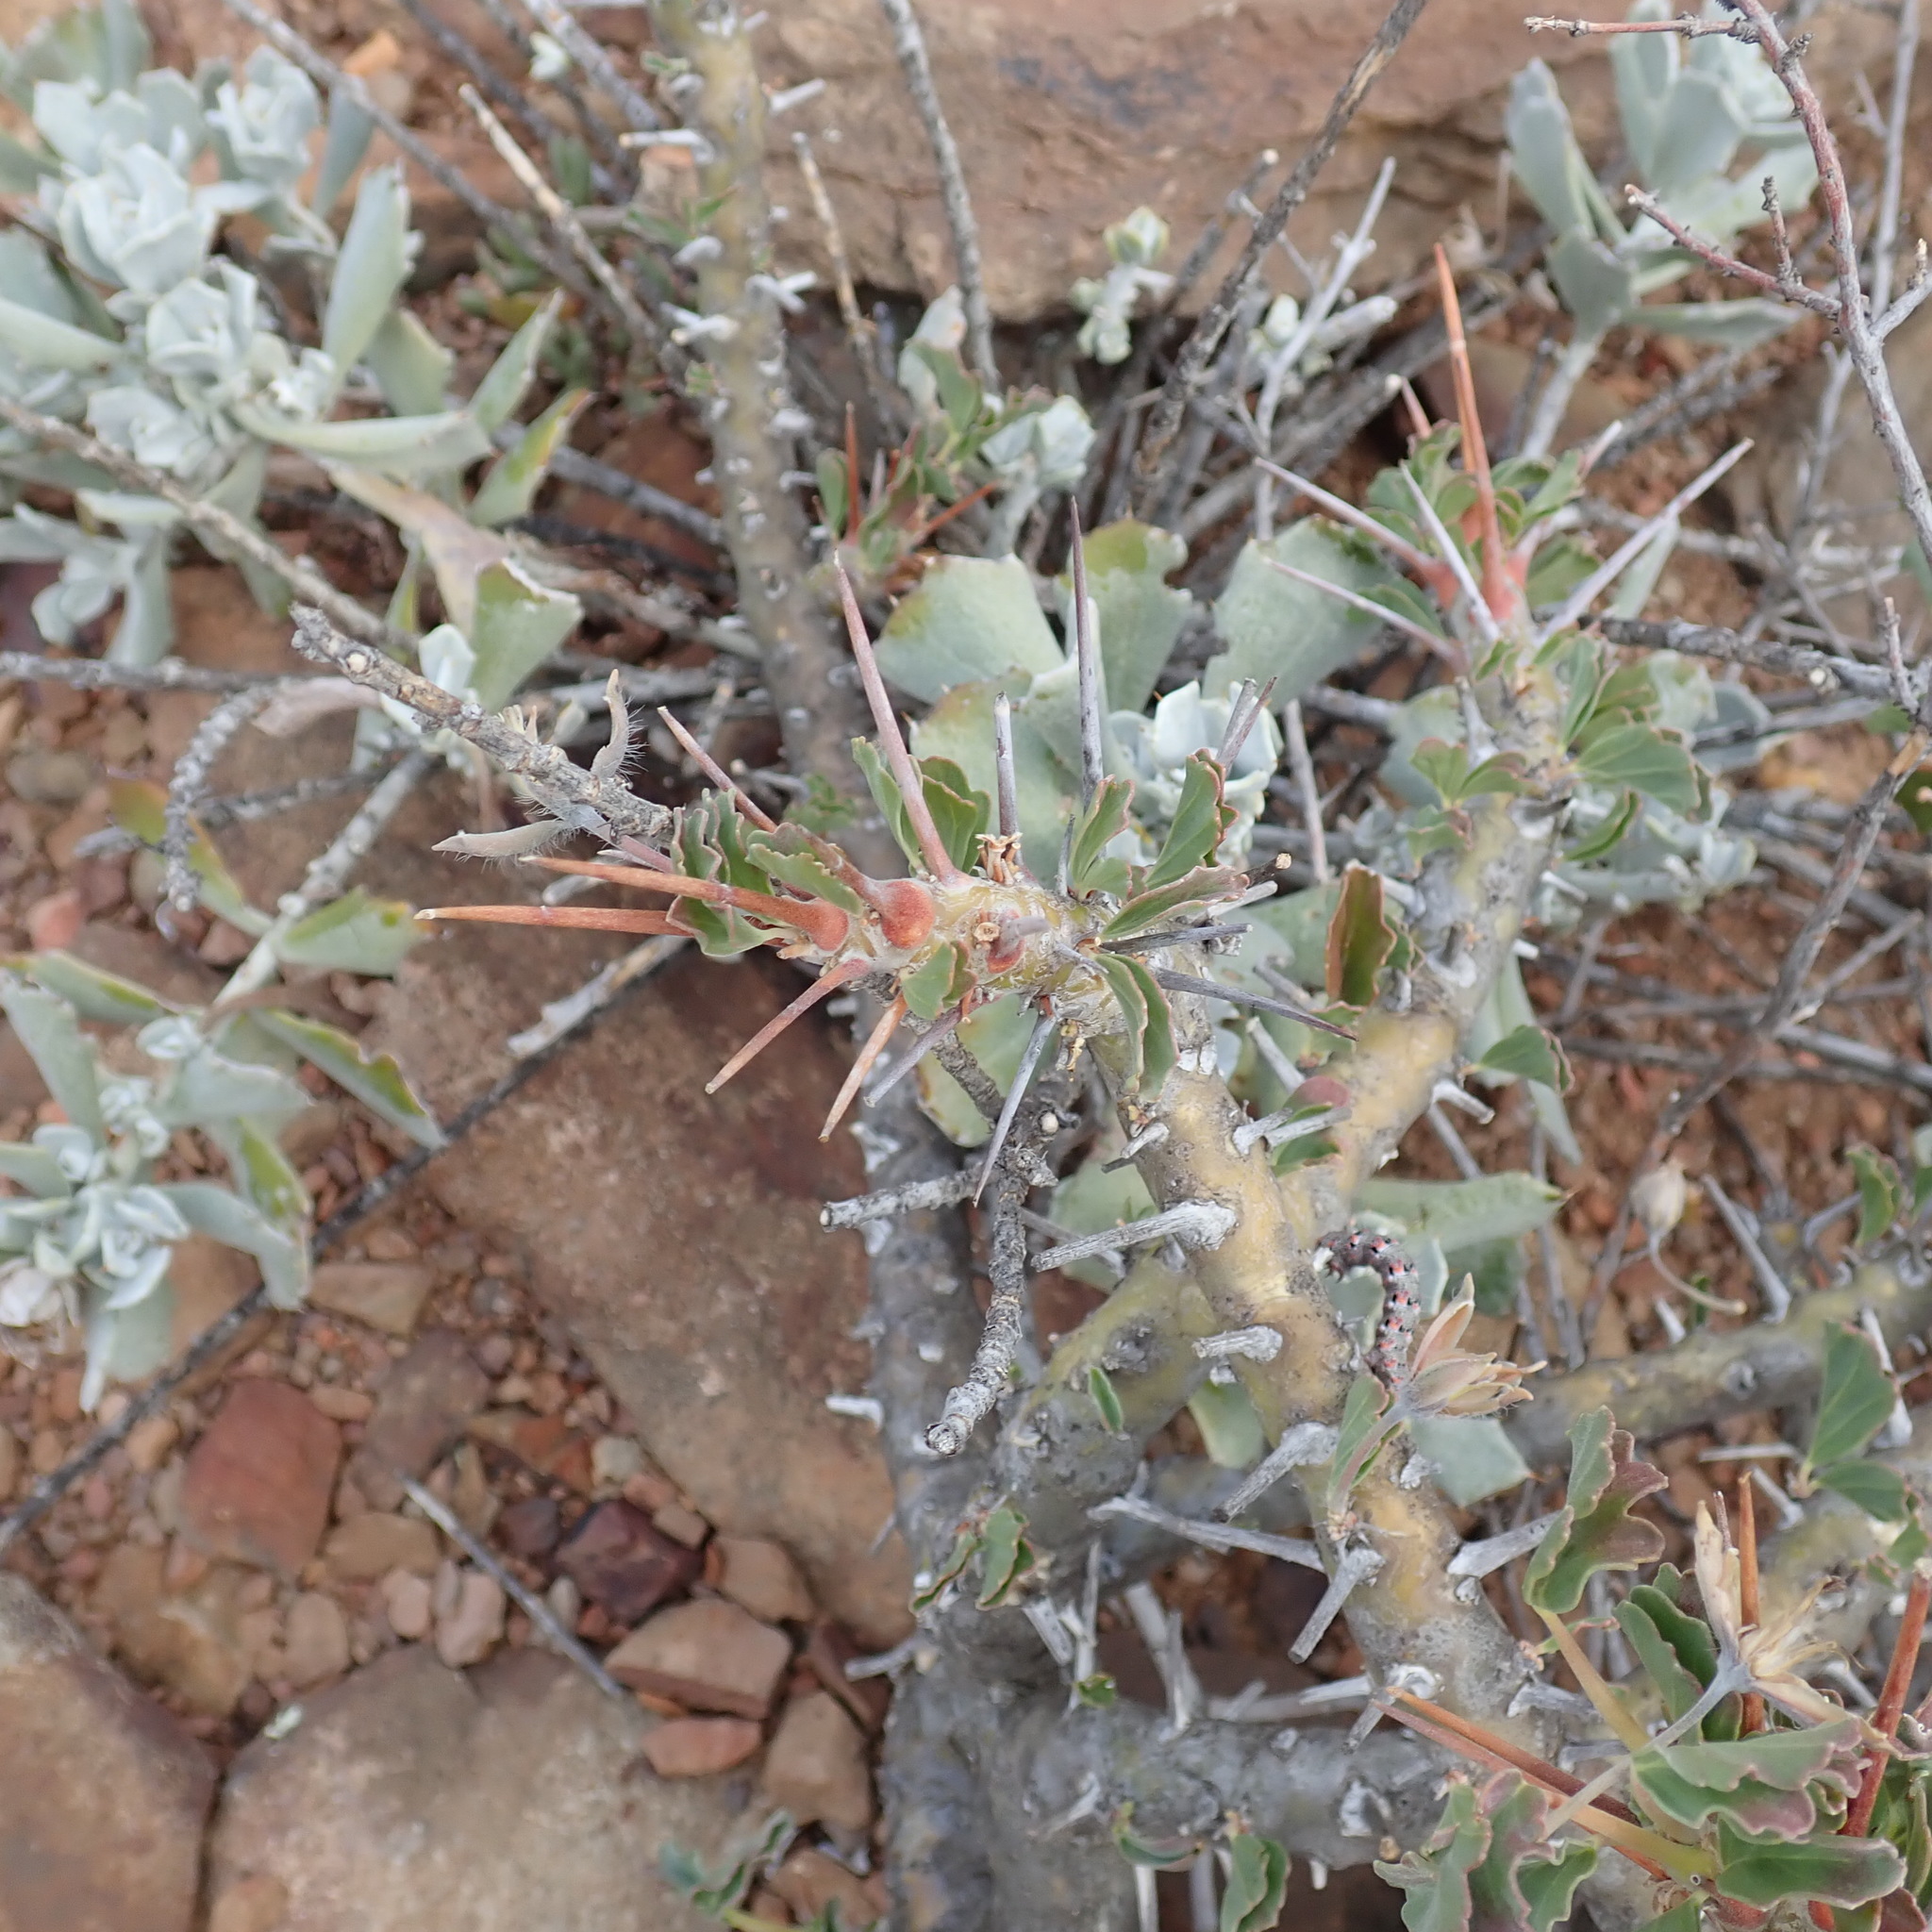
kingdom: Plantae
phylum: Tracheophyta
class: Magnoliopsida
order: Geraniales
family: Geraniaceae
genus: Monsonia
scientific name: Monsonia crassicaulis
